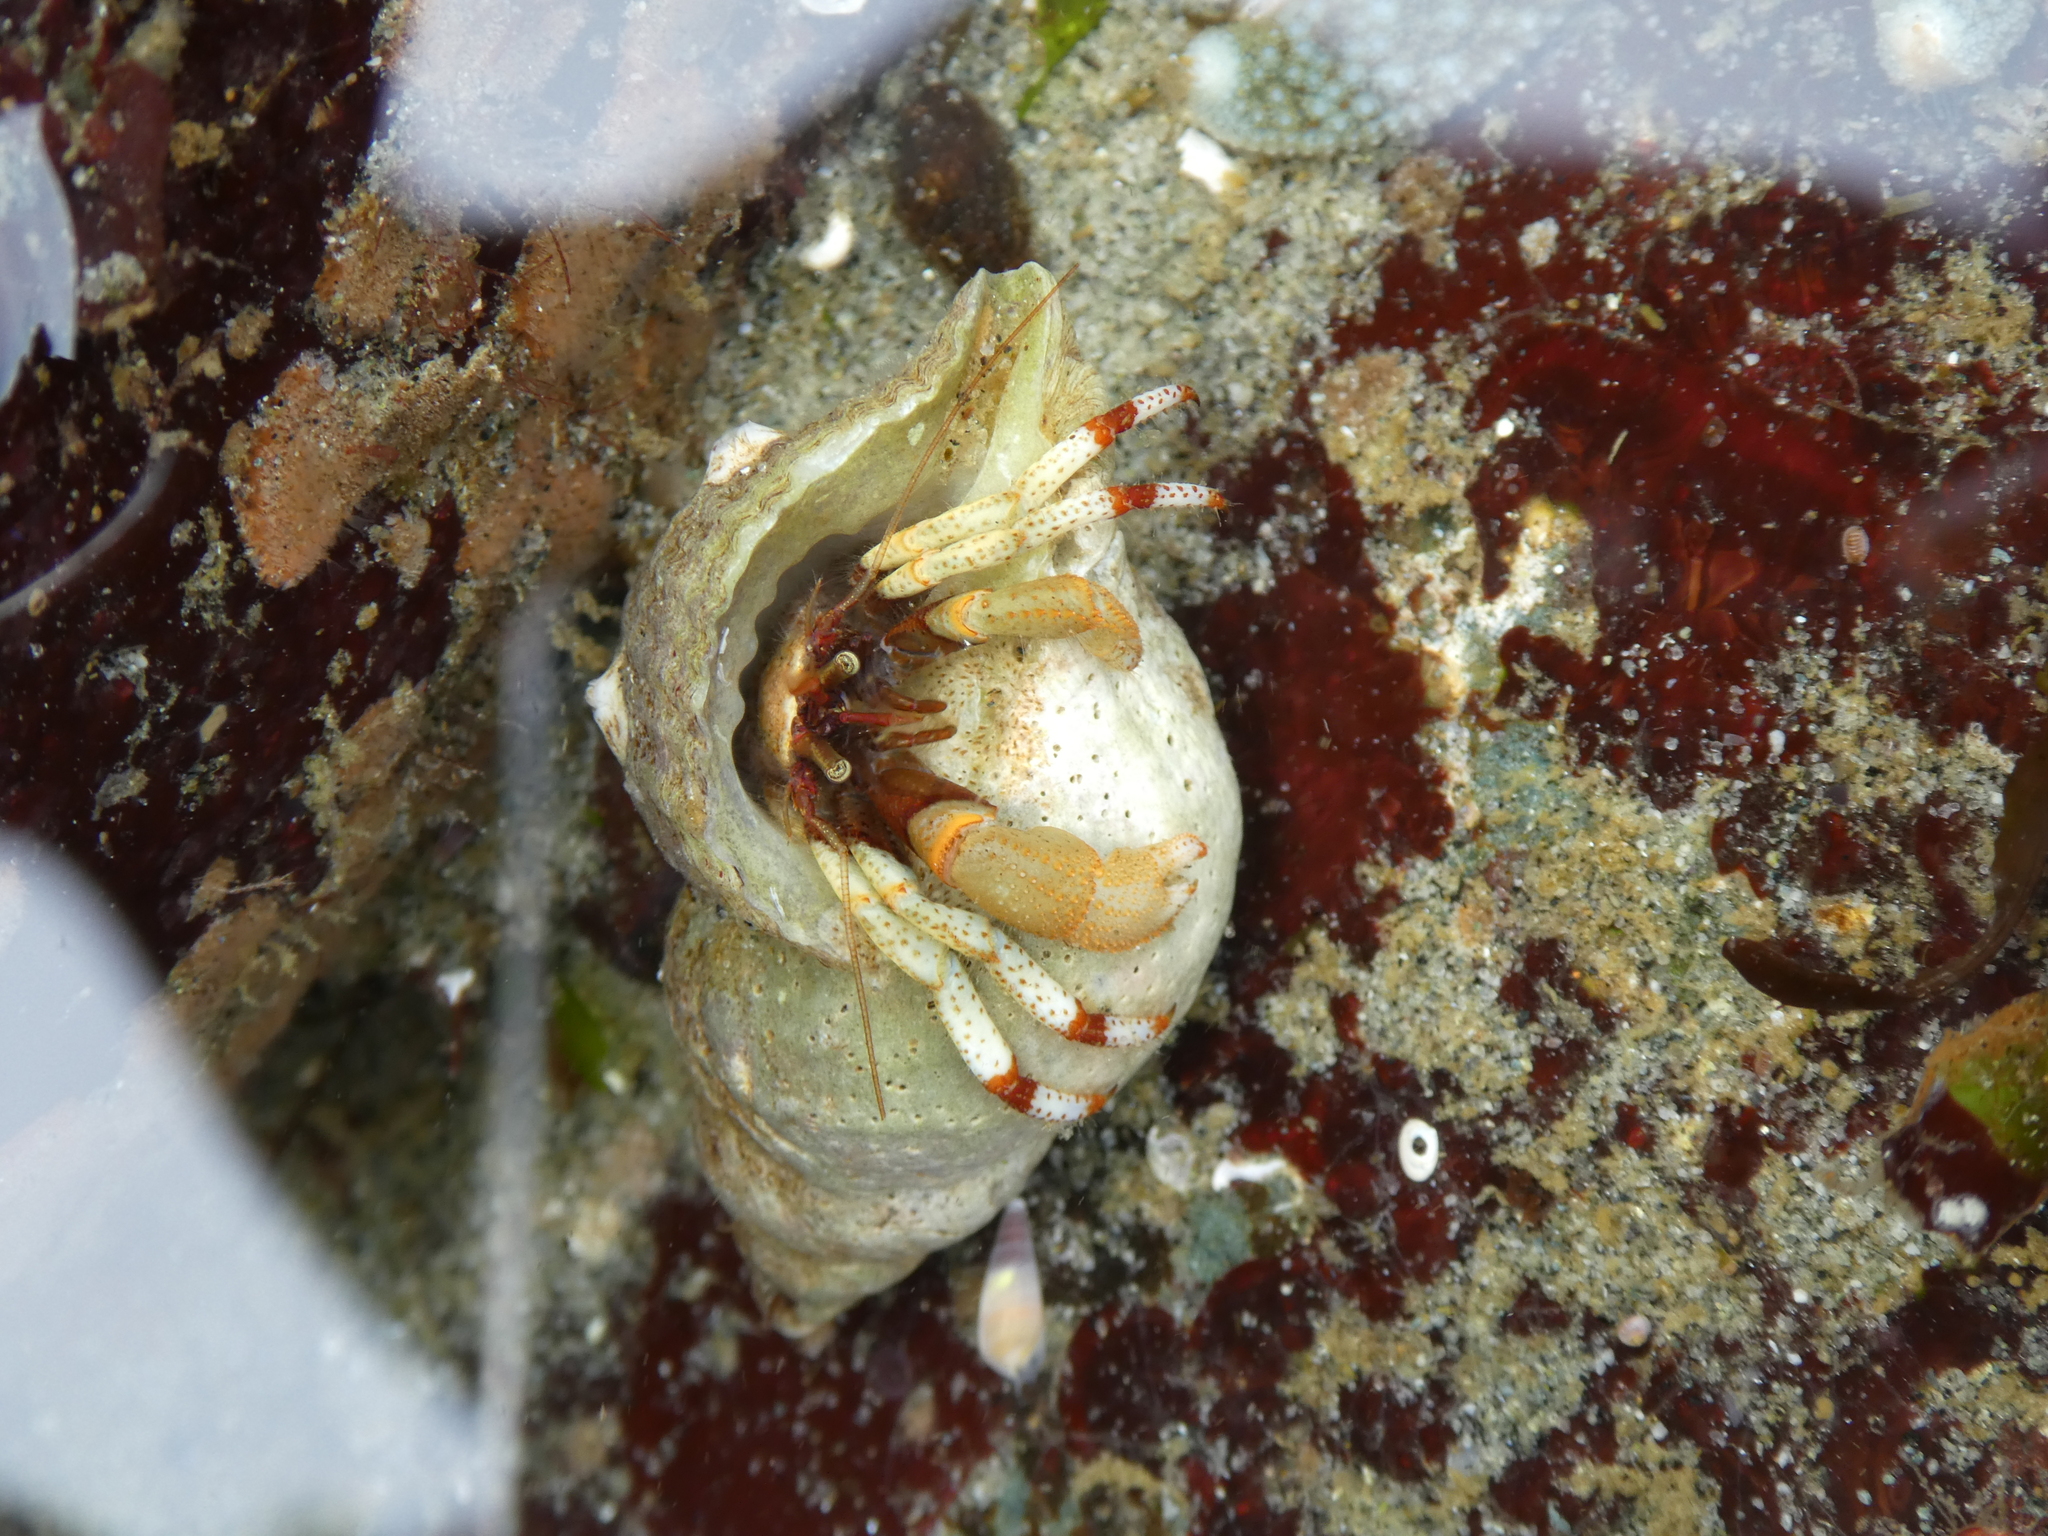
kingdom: Animalia
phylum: Arthropoda
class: Malacostraca
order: Decapoda
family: Paguridae
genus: Pagurus
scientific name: Pagurus beringanus
